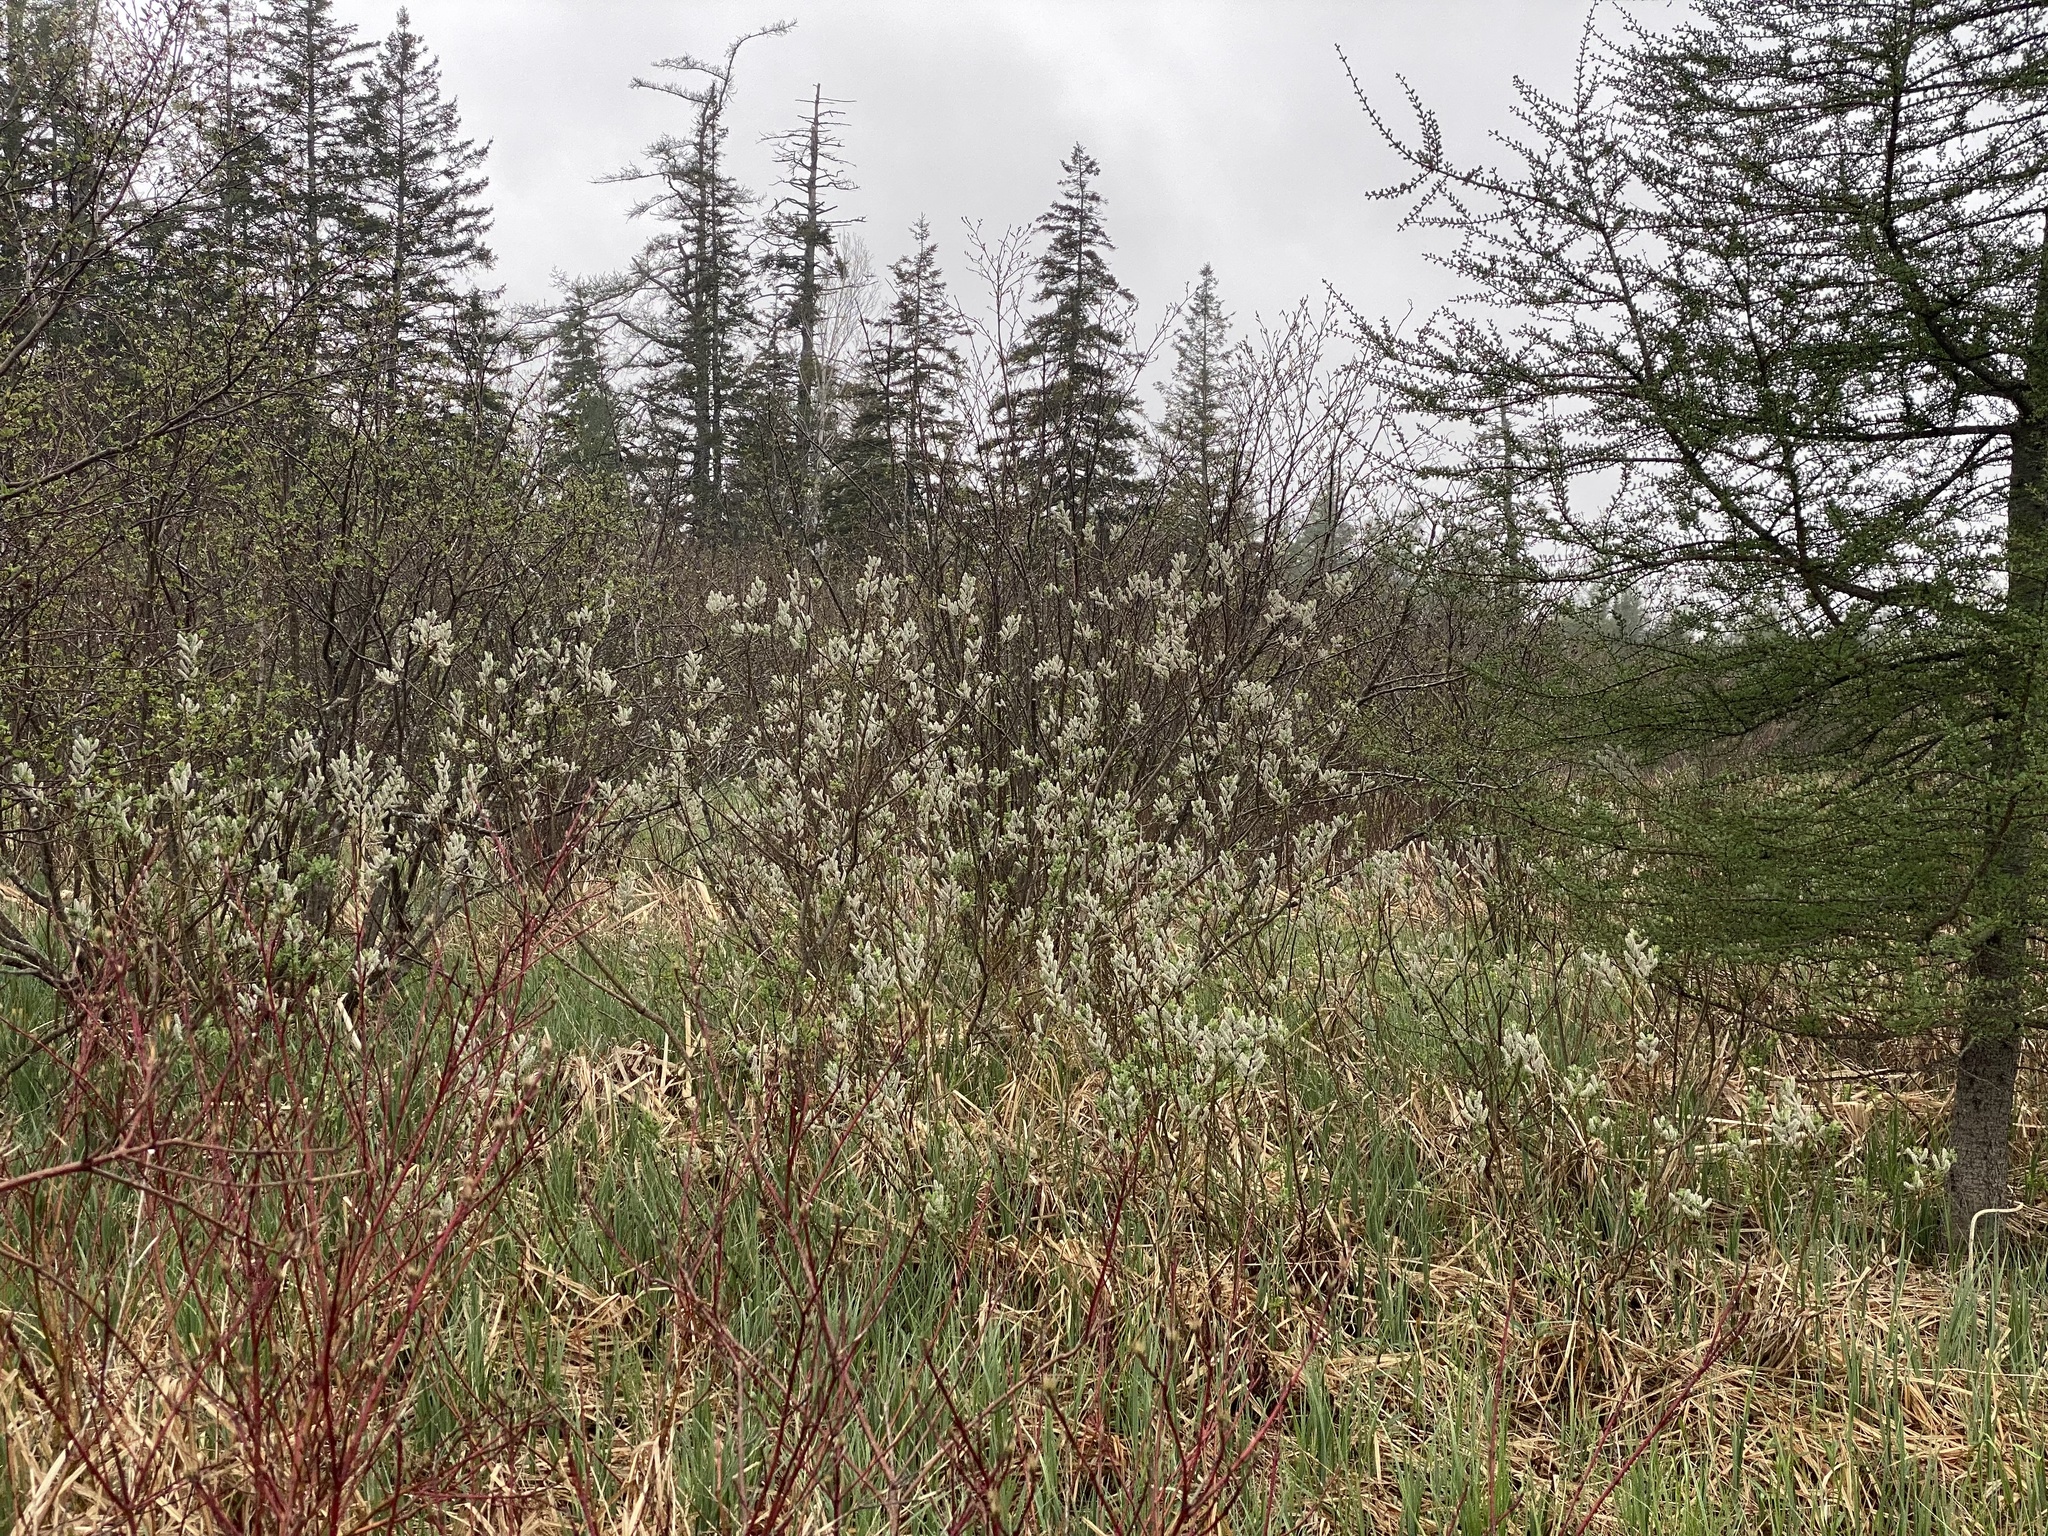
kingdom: Plantae
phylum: Tracheophyta
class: Magnoliopsida
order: Malpighiales
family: Salicaceae
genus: Salix
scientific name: Salix candida
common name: Hoary willow
